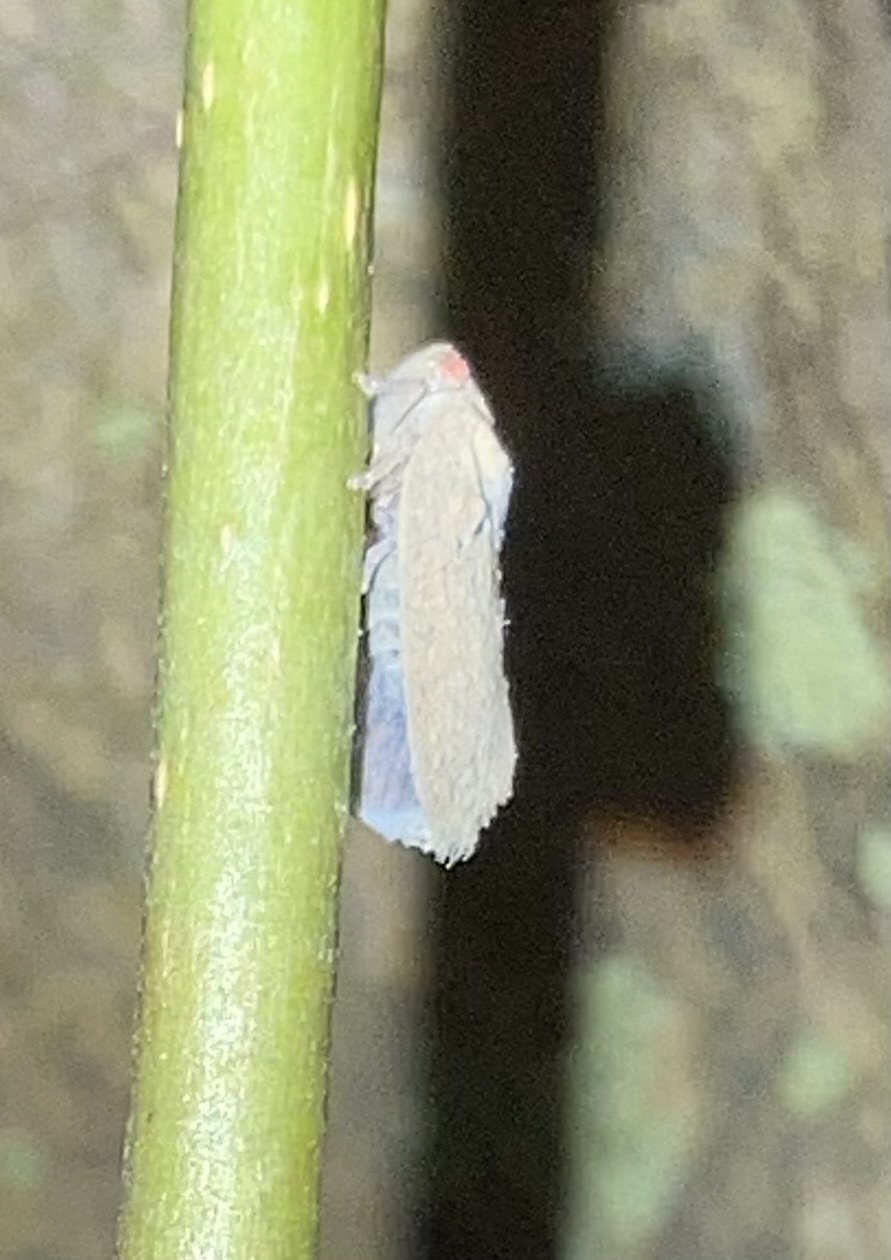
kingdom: Animalia
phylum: Arthropoda
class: Insecta
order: Hemiptera
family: Flatidae
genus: Melormenis
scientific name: Melormenis basalis
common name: Puerto rican planthopper
